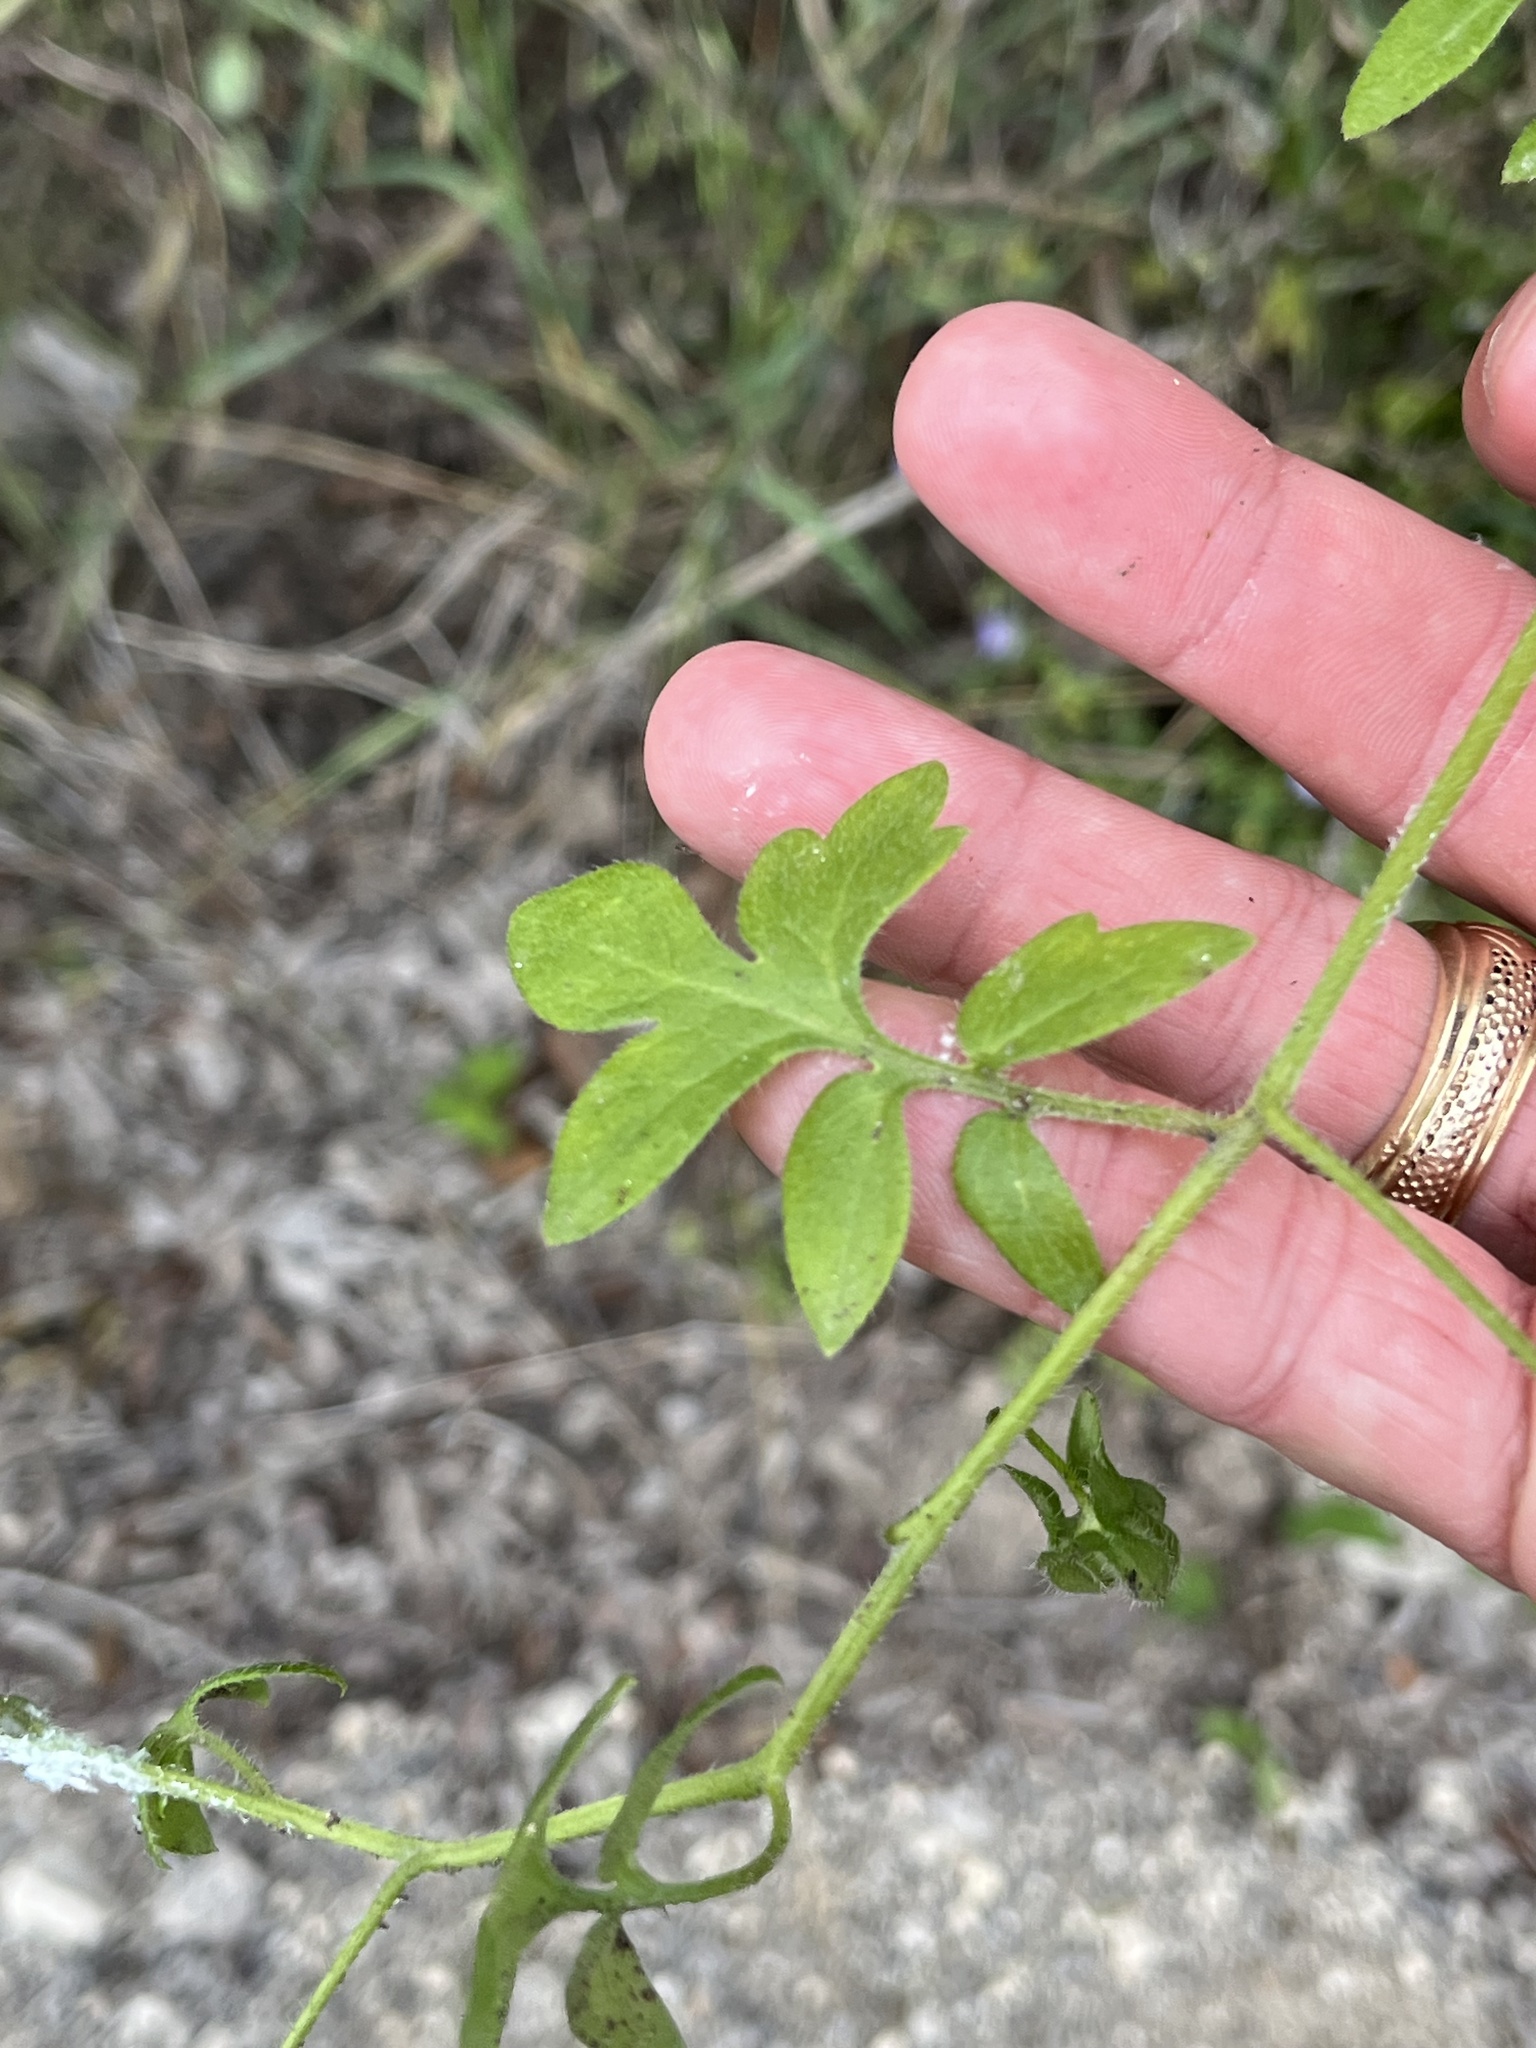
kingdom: Plantae
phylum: Tracheophyta
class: Magnoliopsida
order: Boraginales
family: Hydrophyllaceae
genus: Nemophila
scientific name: Nemophila phacelioides
